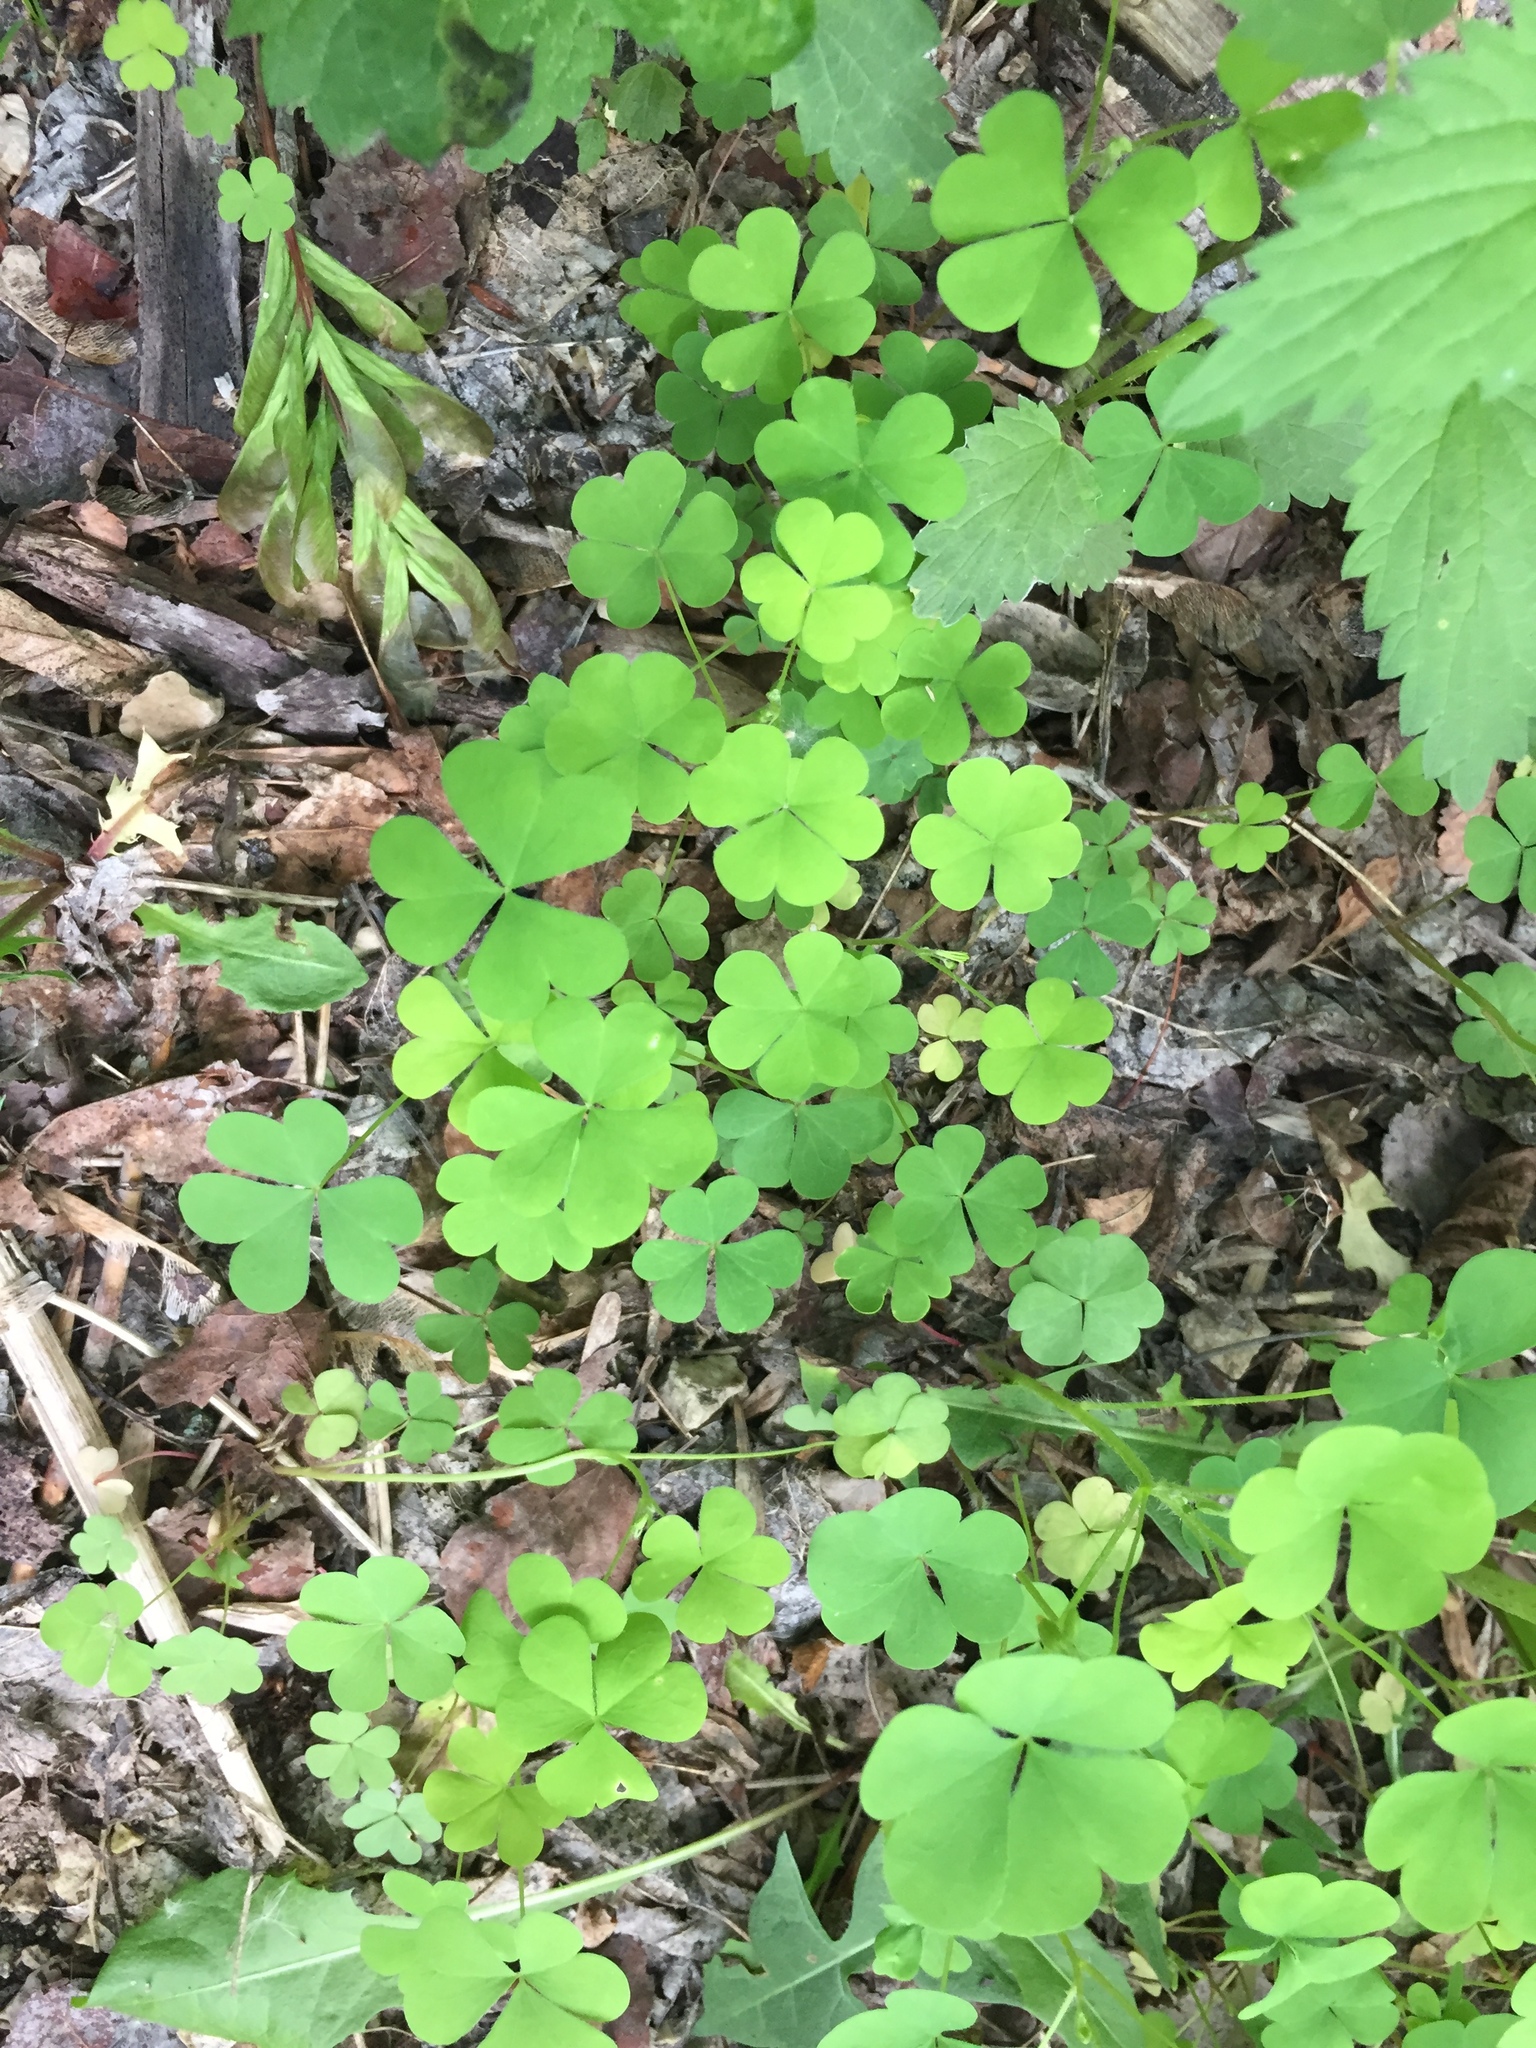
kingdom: Plantae
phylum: Tracheophyta
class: Magnoliopsida
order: Oxalidales
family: Oxalidaceae
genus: Oxalis
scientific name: Oxalis stricta
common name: Upright yellow-sorrel
